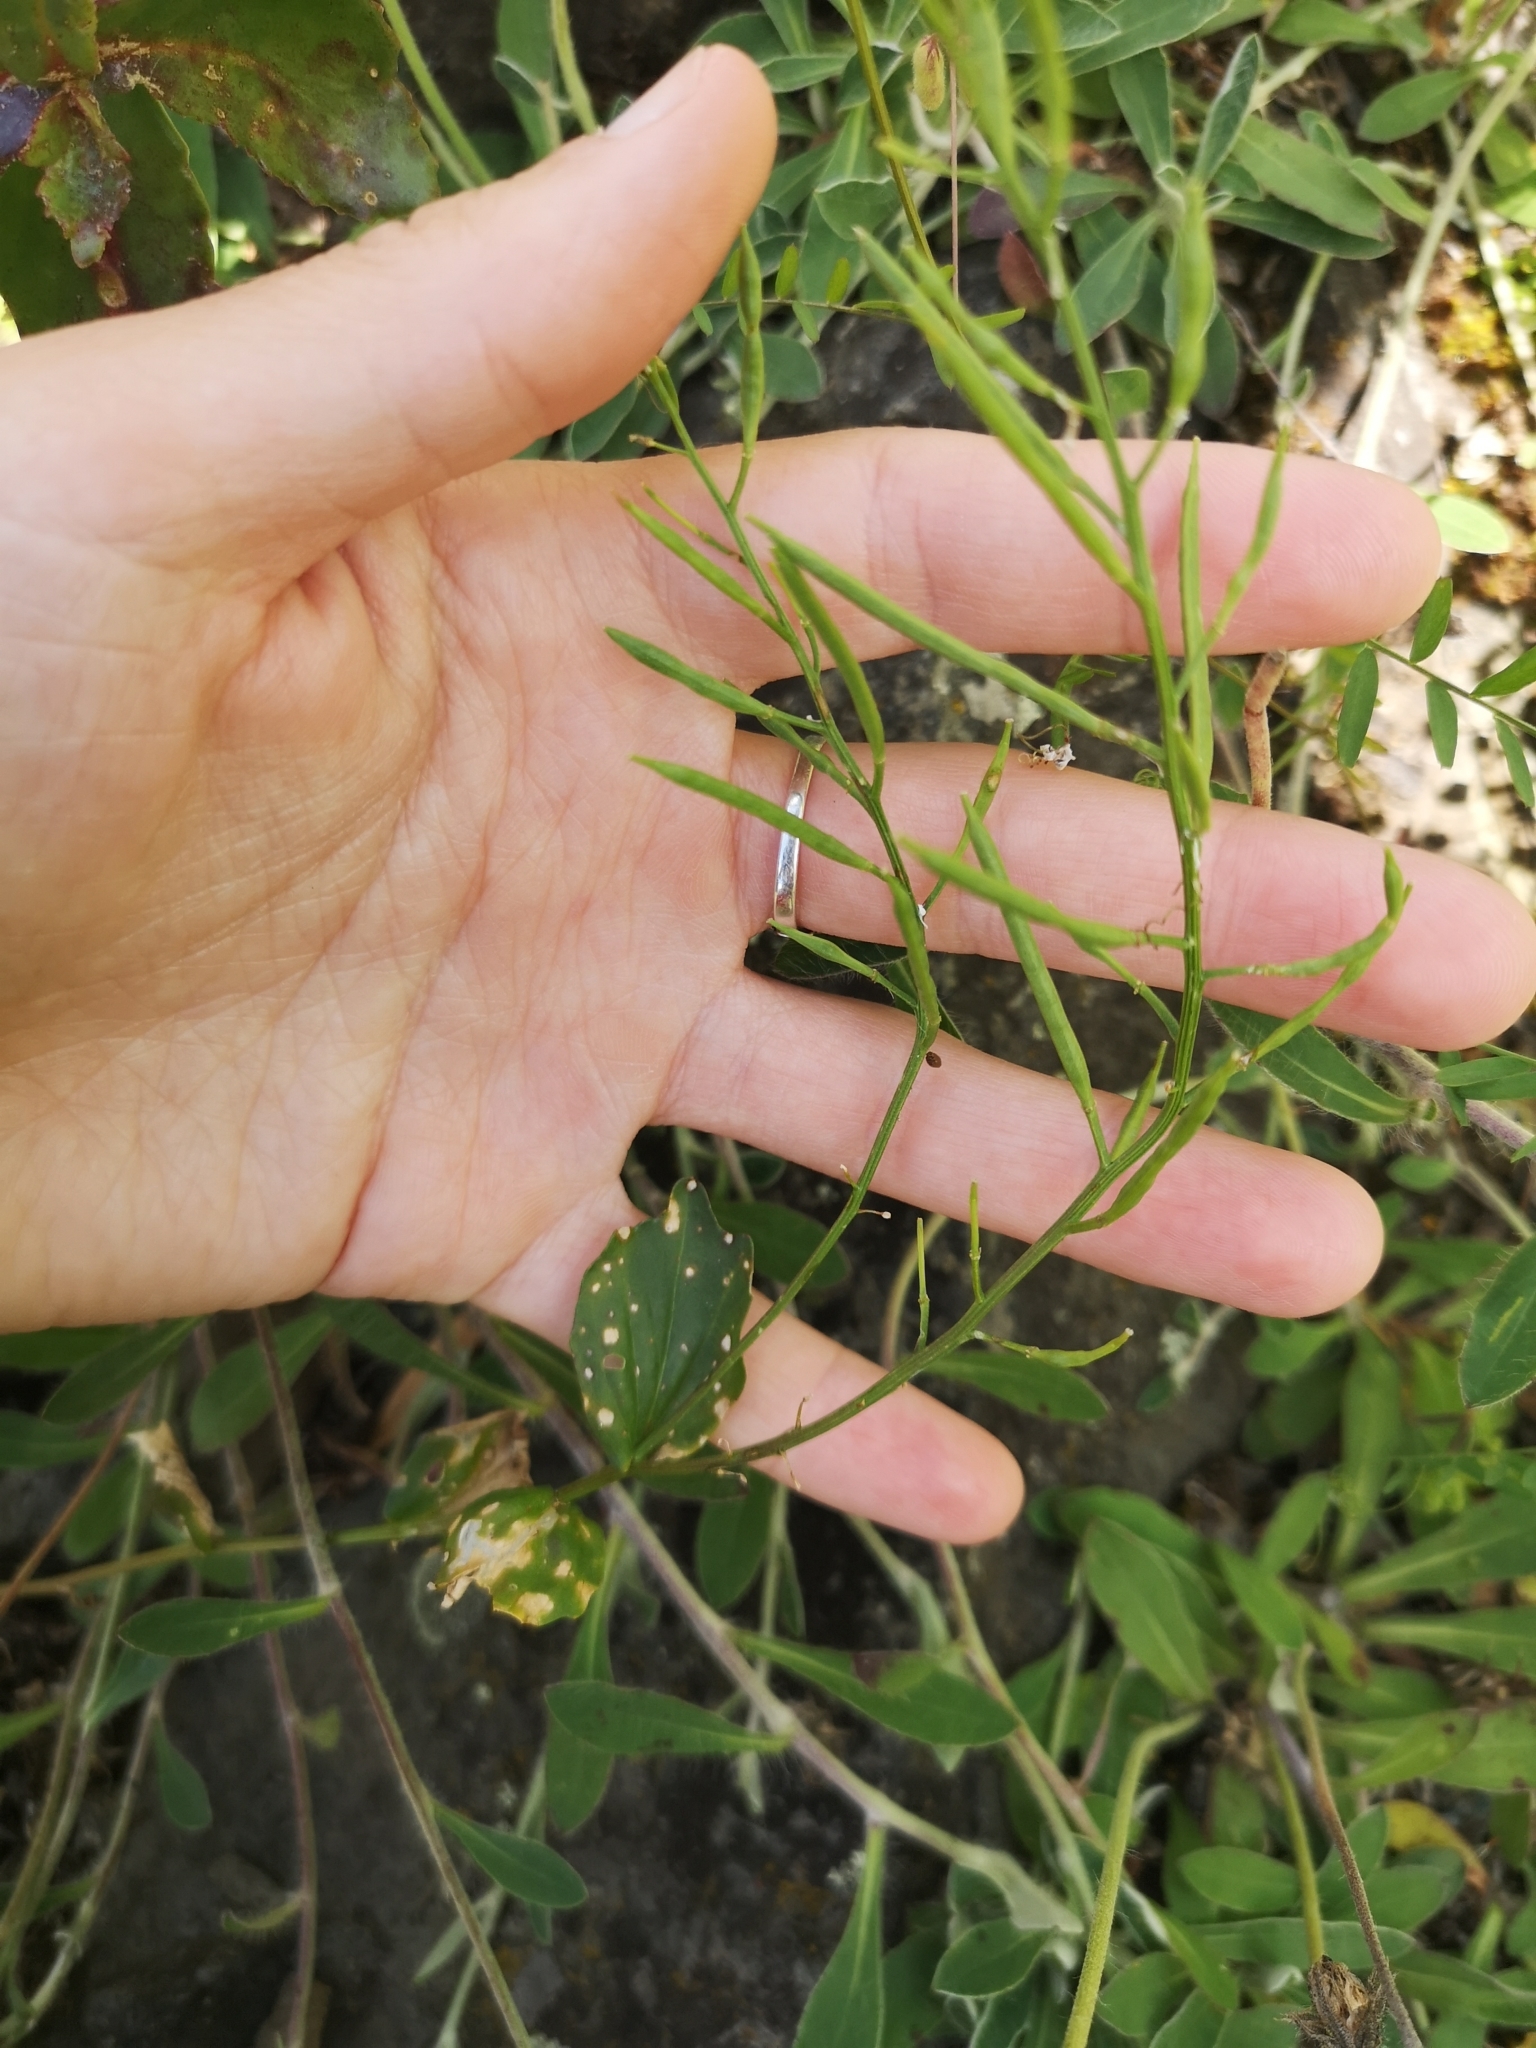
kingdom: Plantae
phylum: Tracheophyta
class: Magnoliopsida
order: Brassicales
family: Brassicaceae
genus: Barbarea
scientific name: Barbarea vulgaris
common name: Cressy-greens
